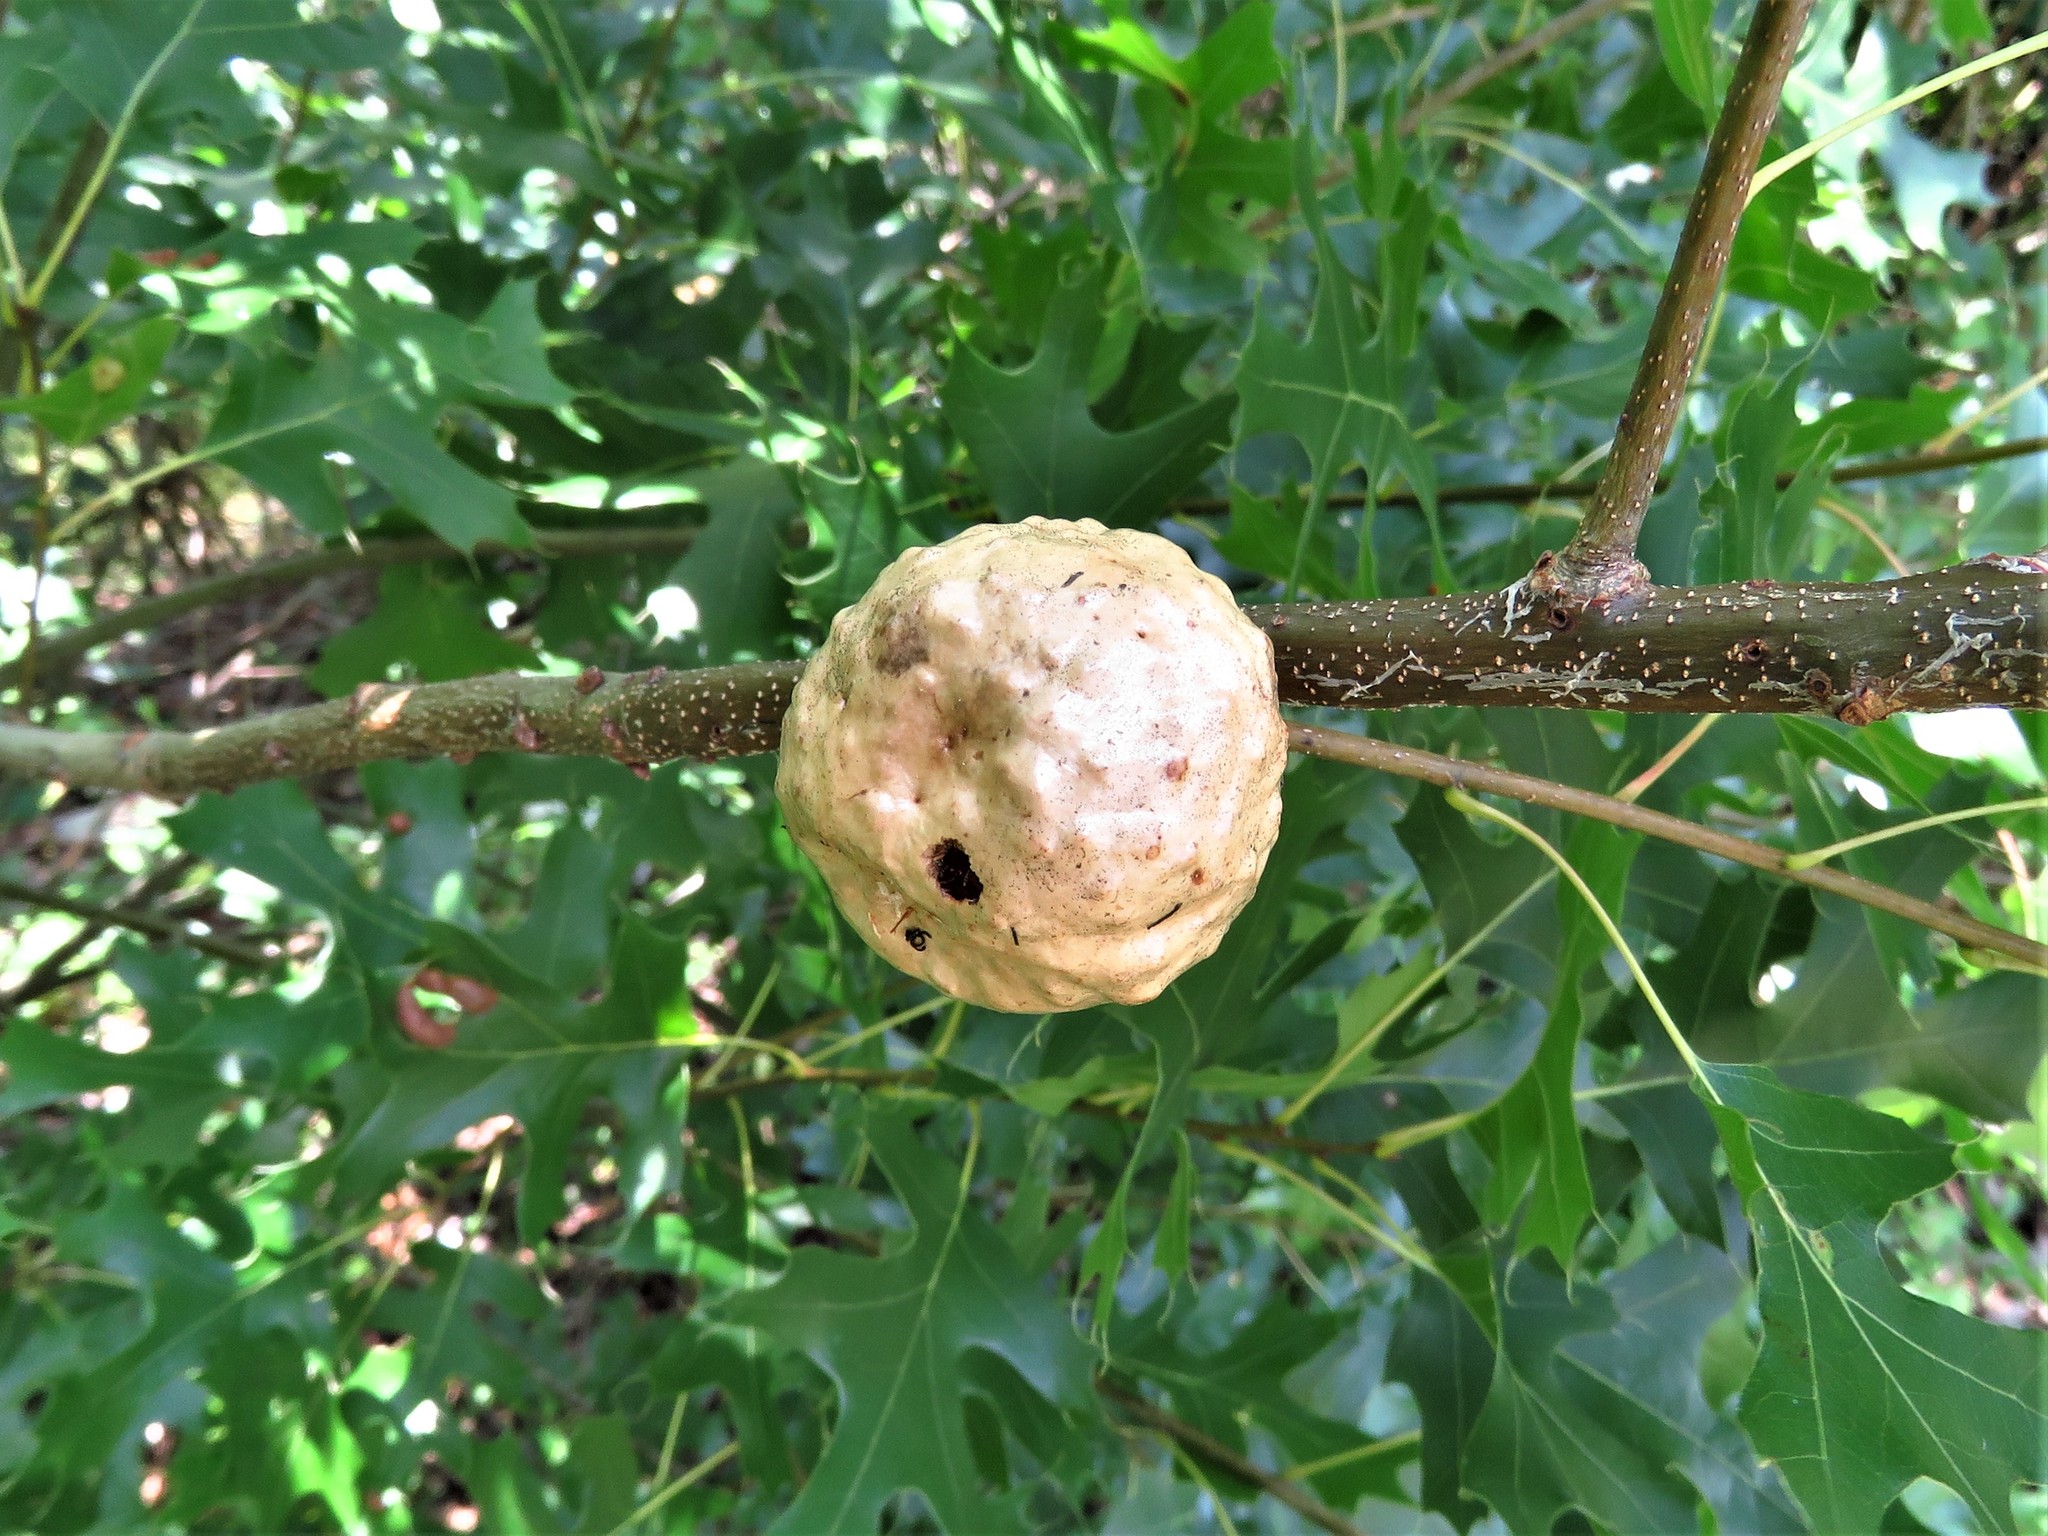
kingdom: Animalia
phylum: Arthropoda
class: Insecta
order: Hymenoptera
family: Cynipidae
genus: Amphibolips
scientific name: Amphibolips
